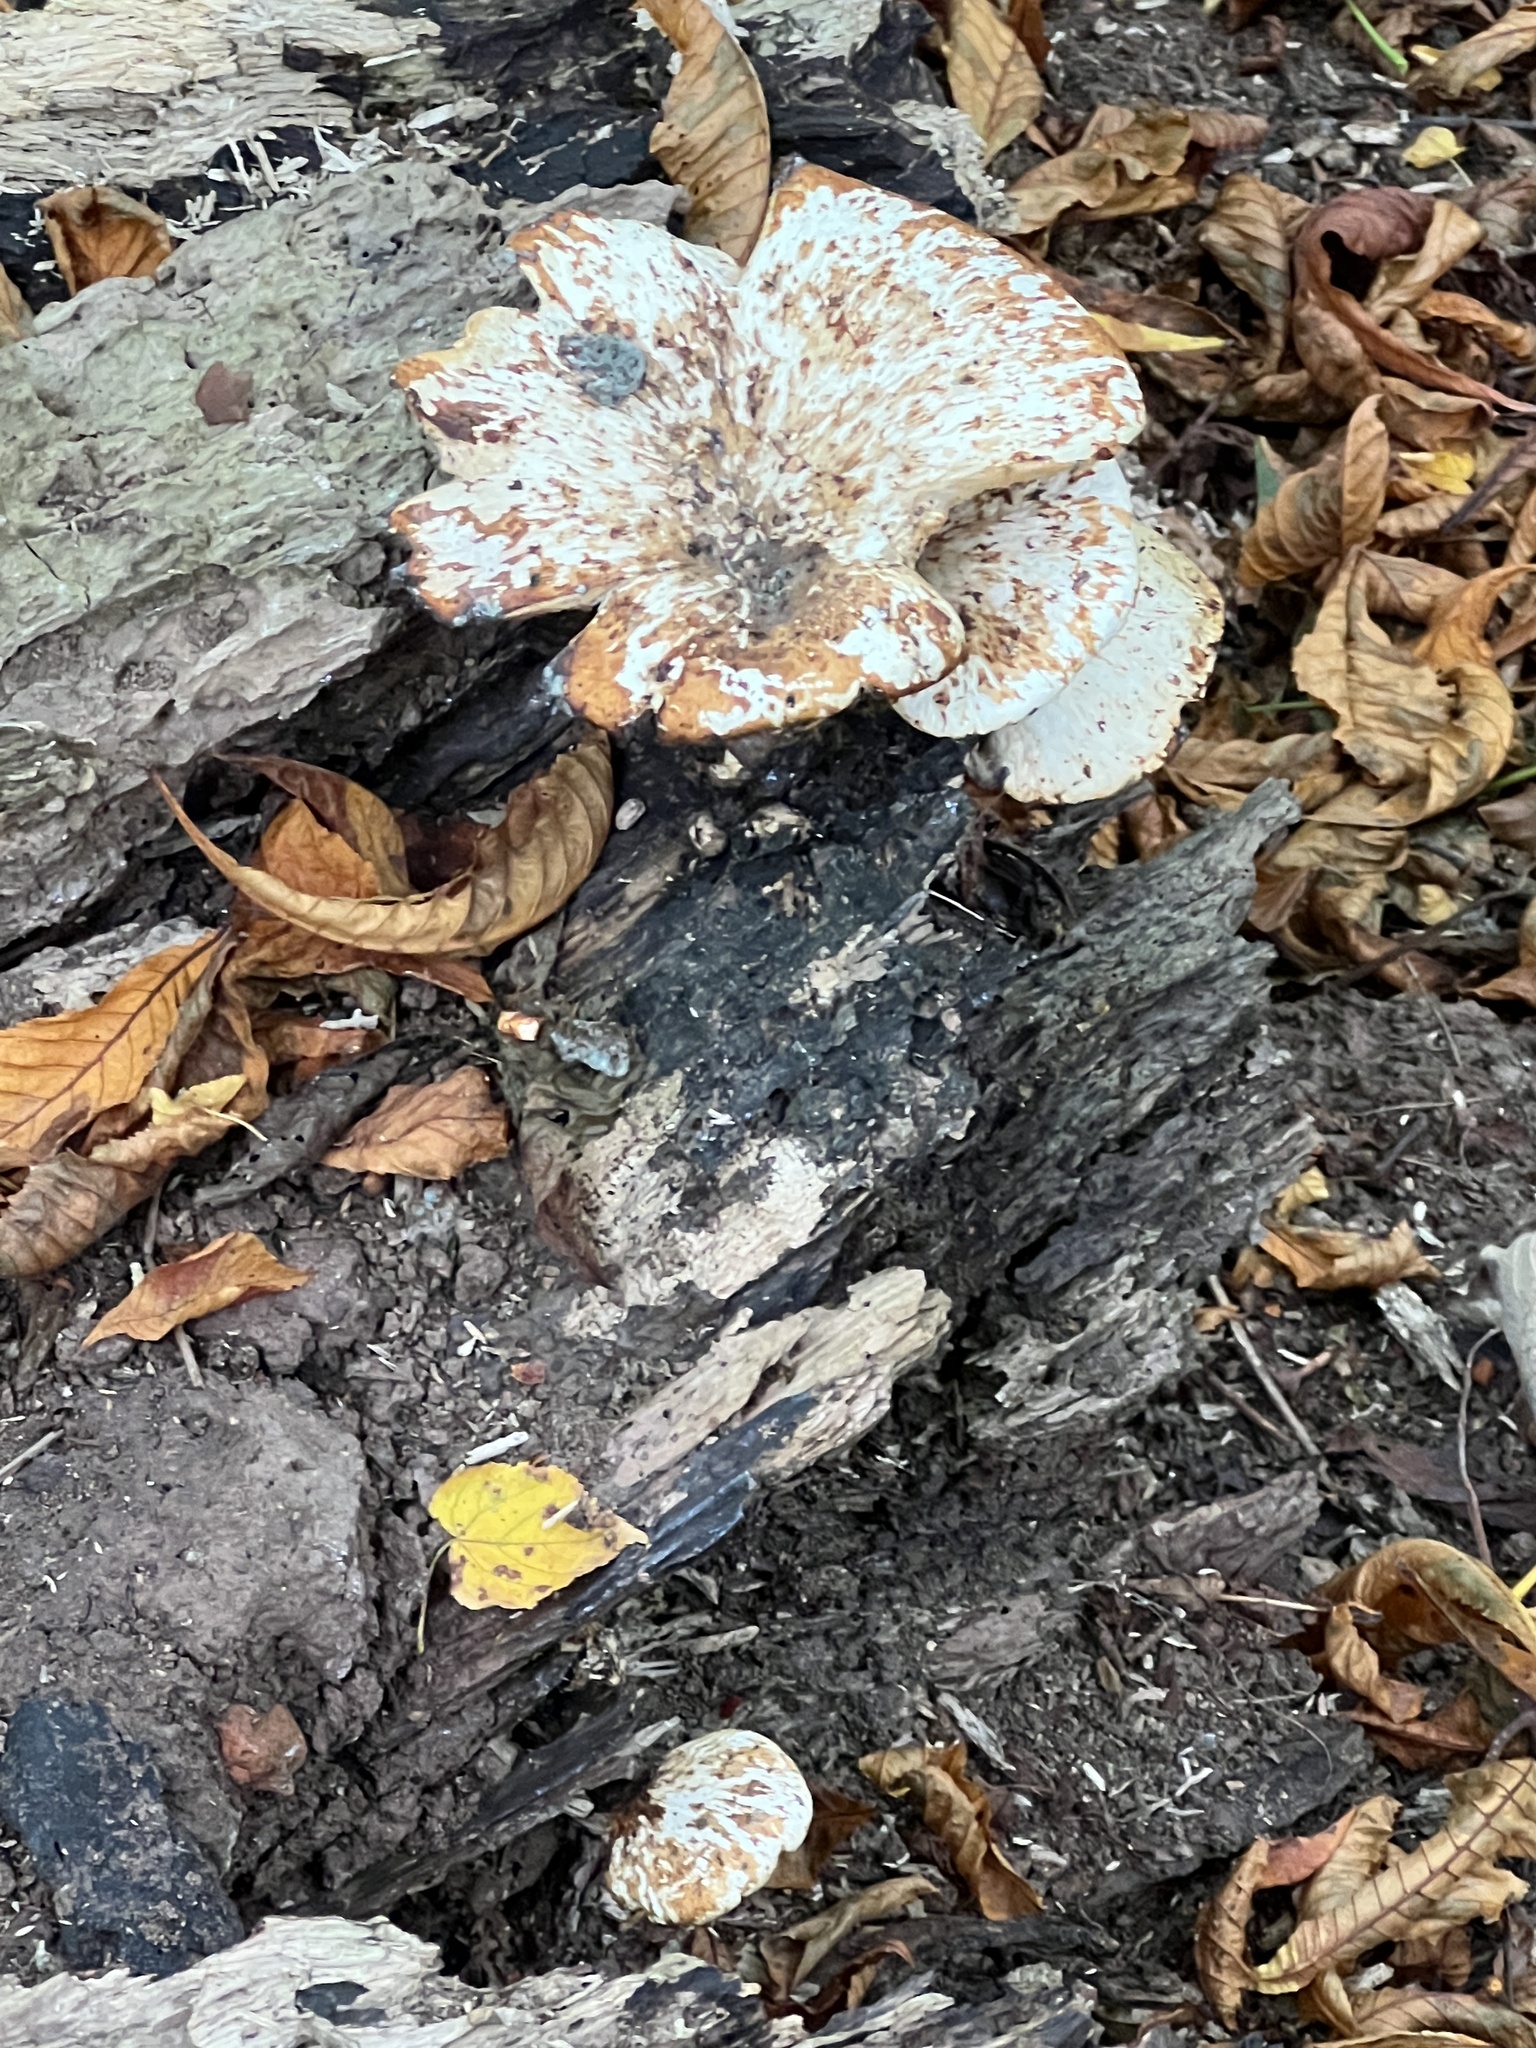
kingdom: Fungi
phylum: Basidiomycota
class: Agaricomycetes
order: Polyporales
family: Polyporaceae
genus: Cerioporus
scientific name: Cerioporus squamosus
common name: Dryad's saddle
